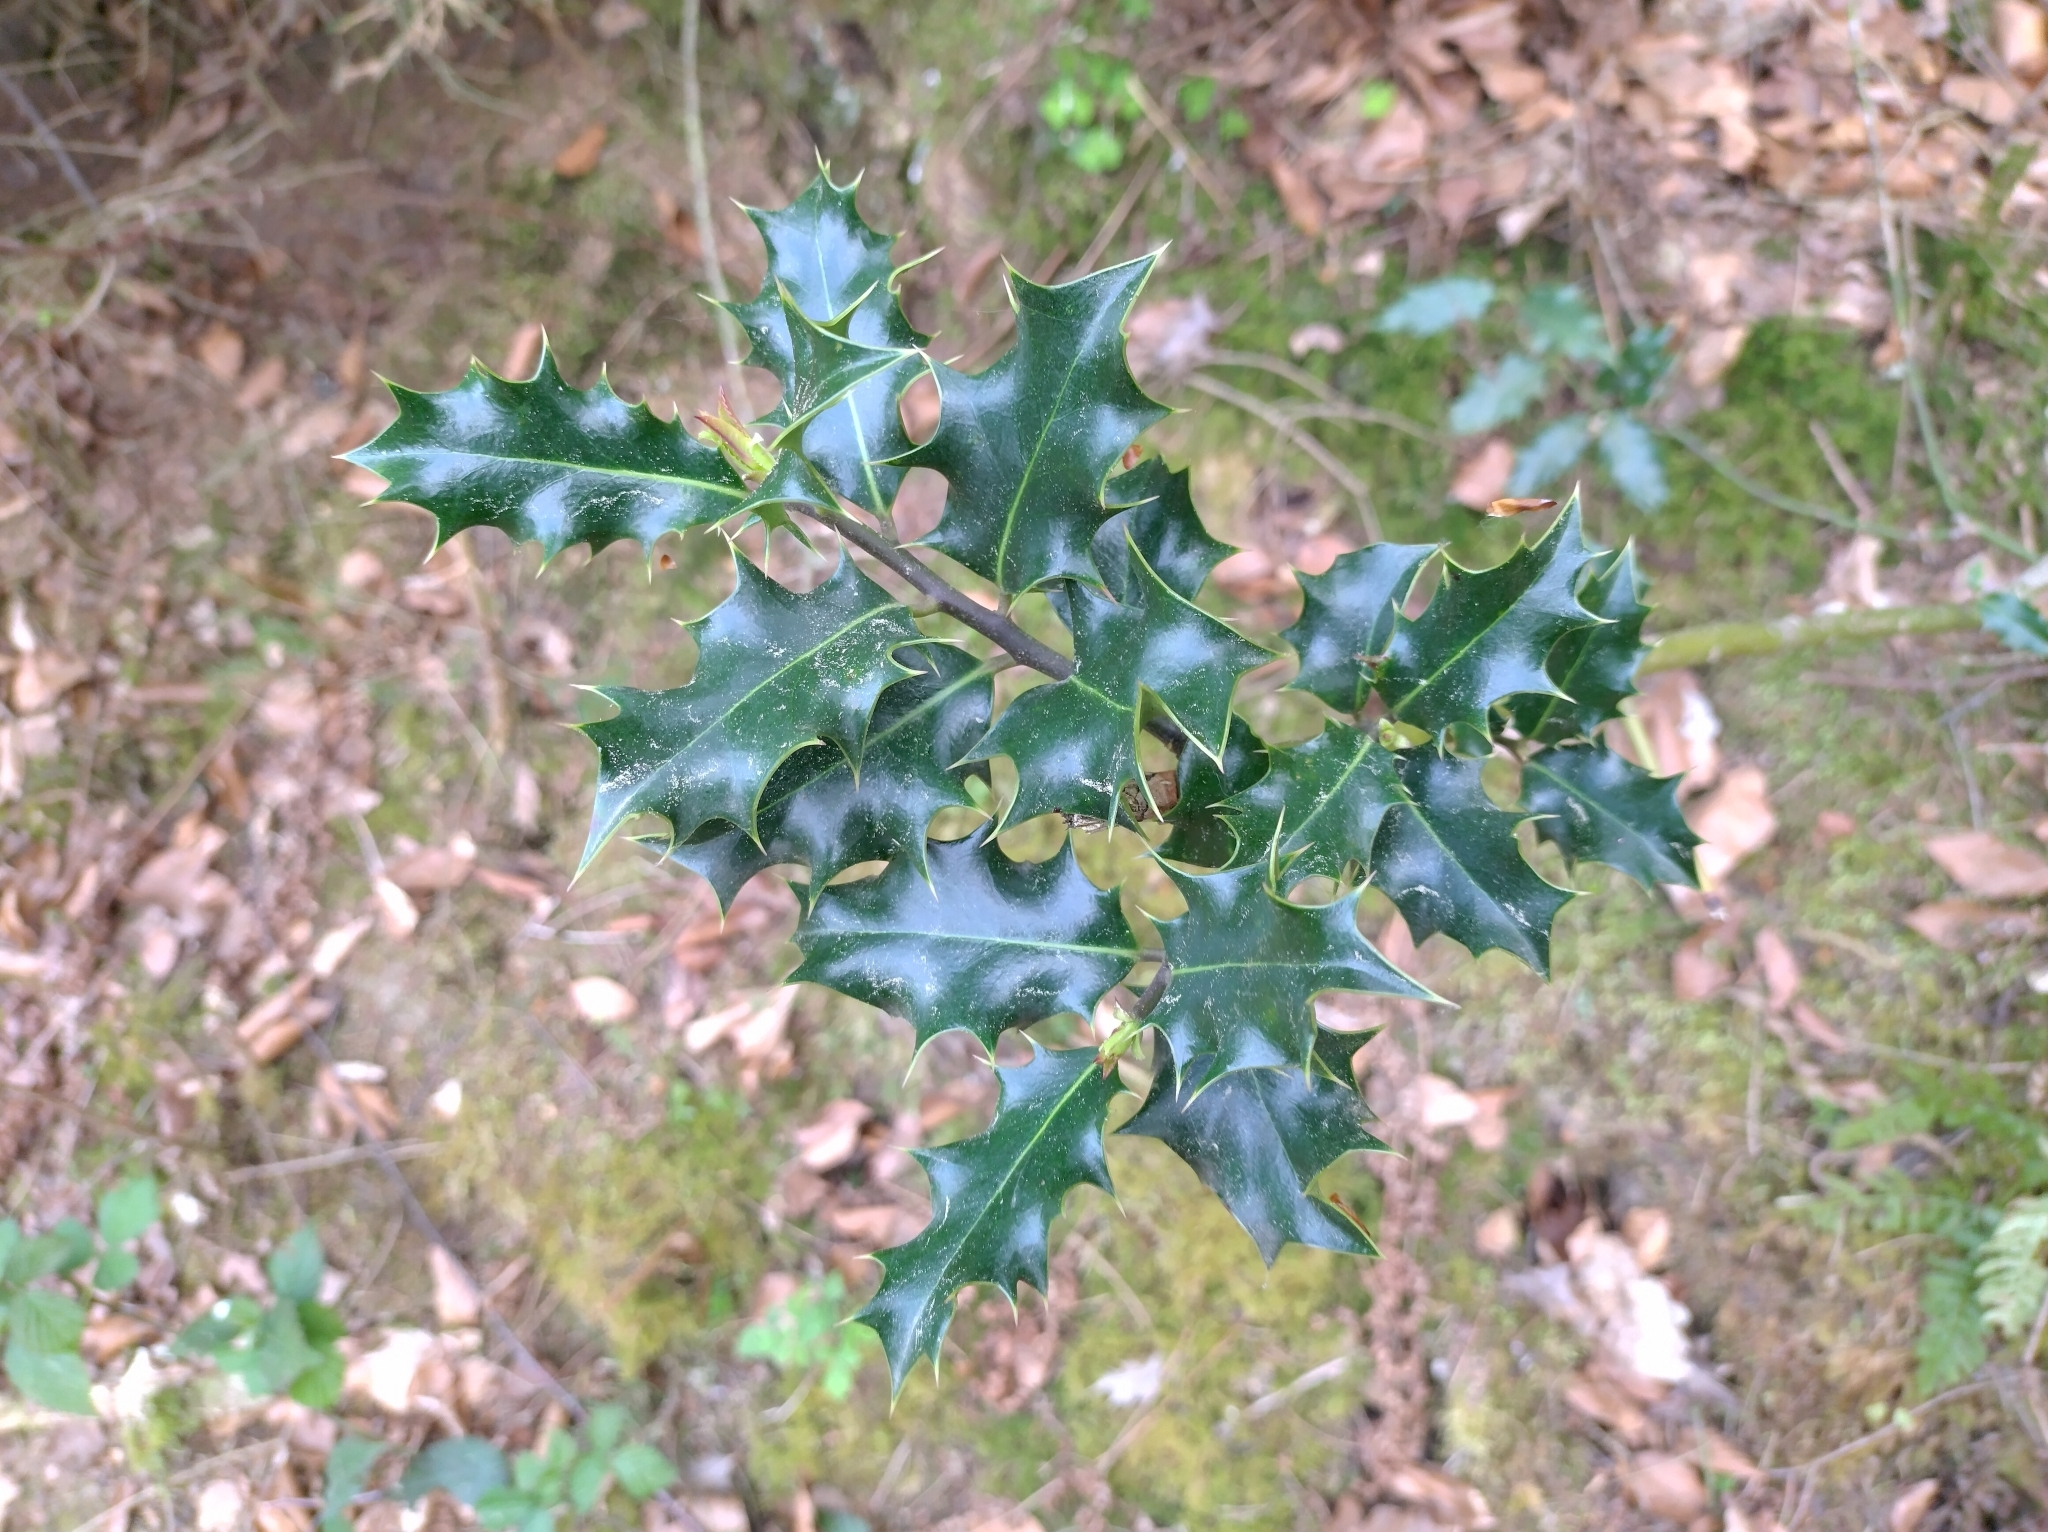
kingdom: Plantae
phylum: Tracheophyta
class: Magnoliopsida
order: Aquifoliales
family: Aquifoliaceae
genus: Ilex
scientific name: Ilex aquifolium
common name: English holly
